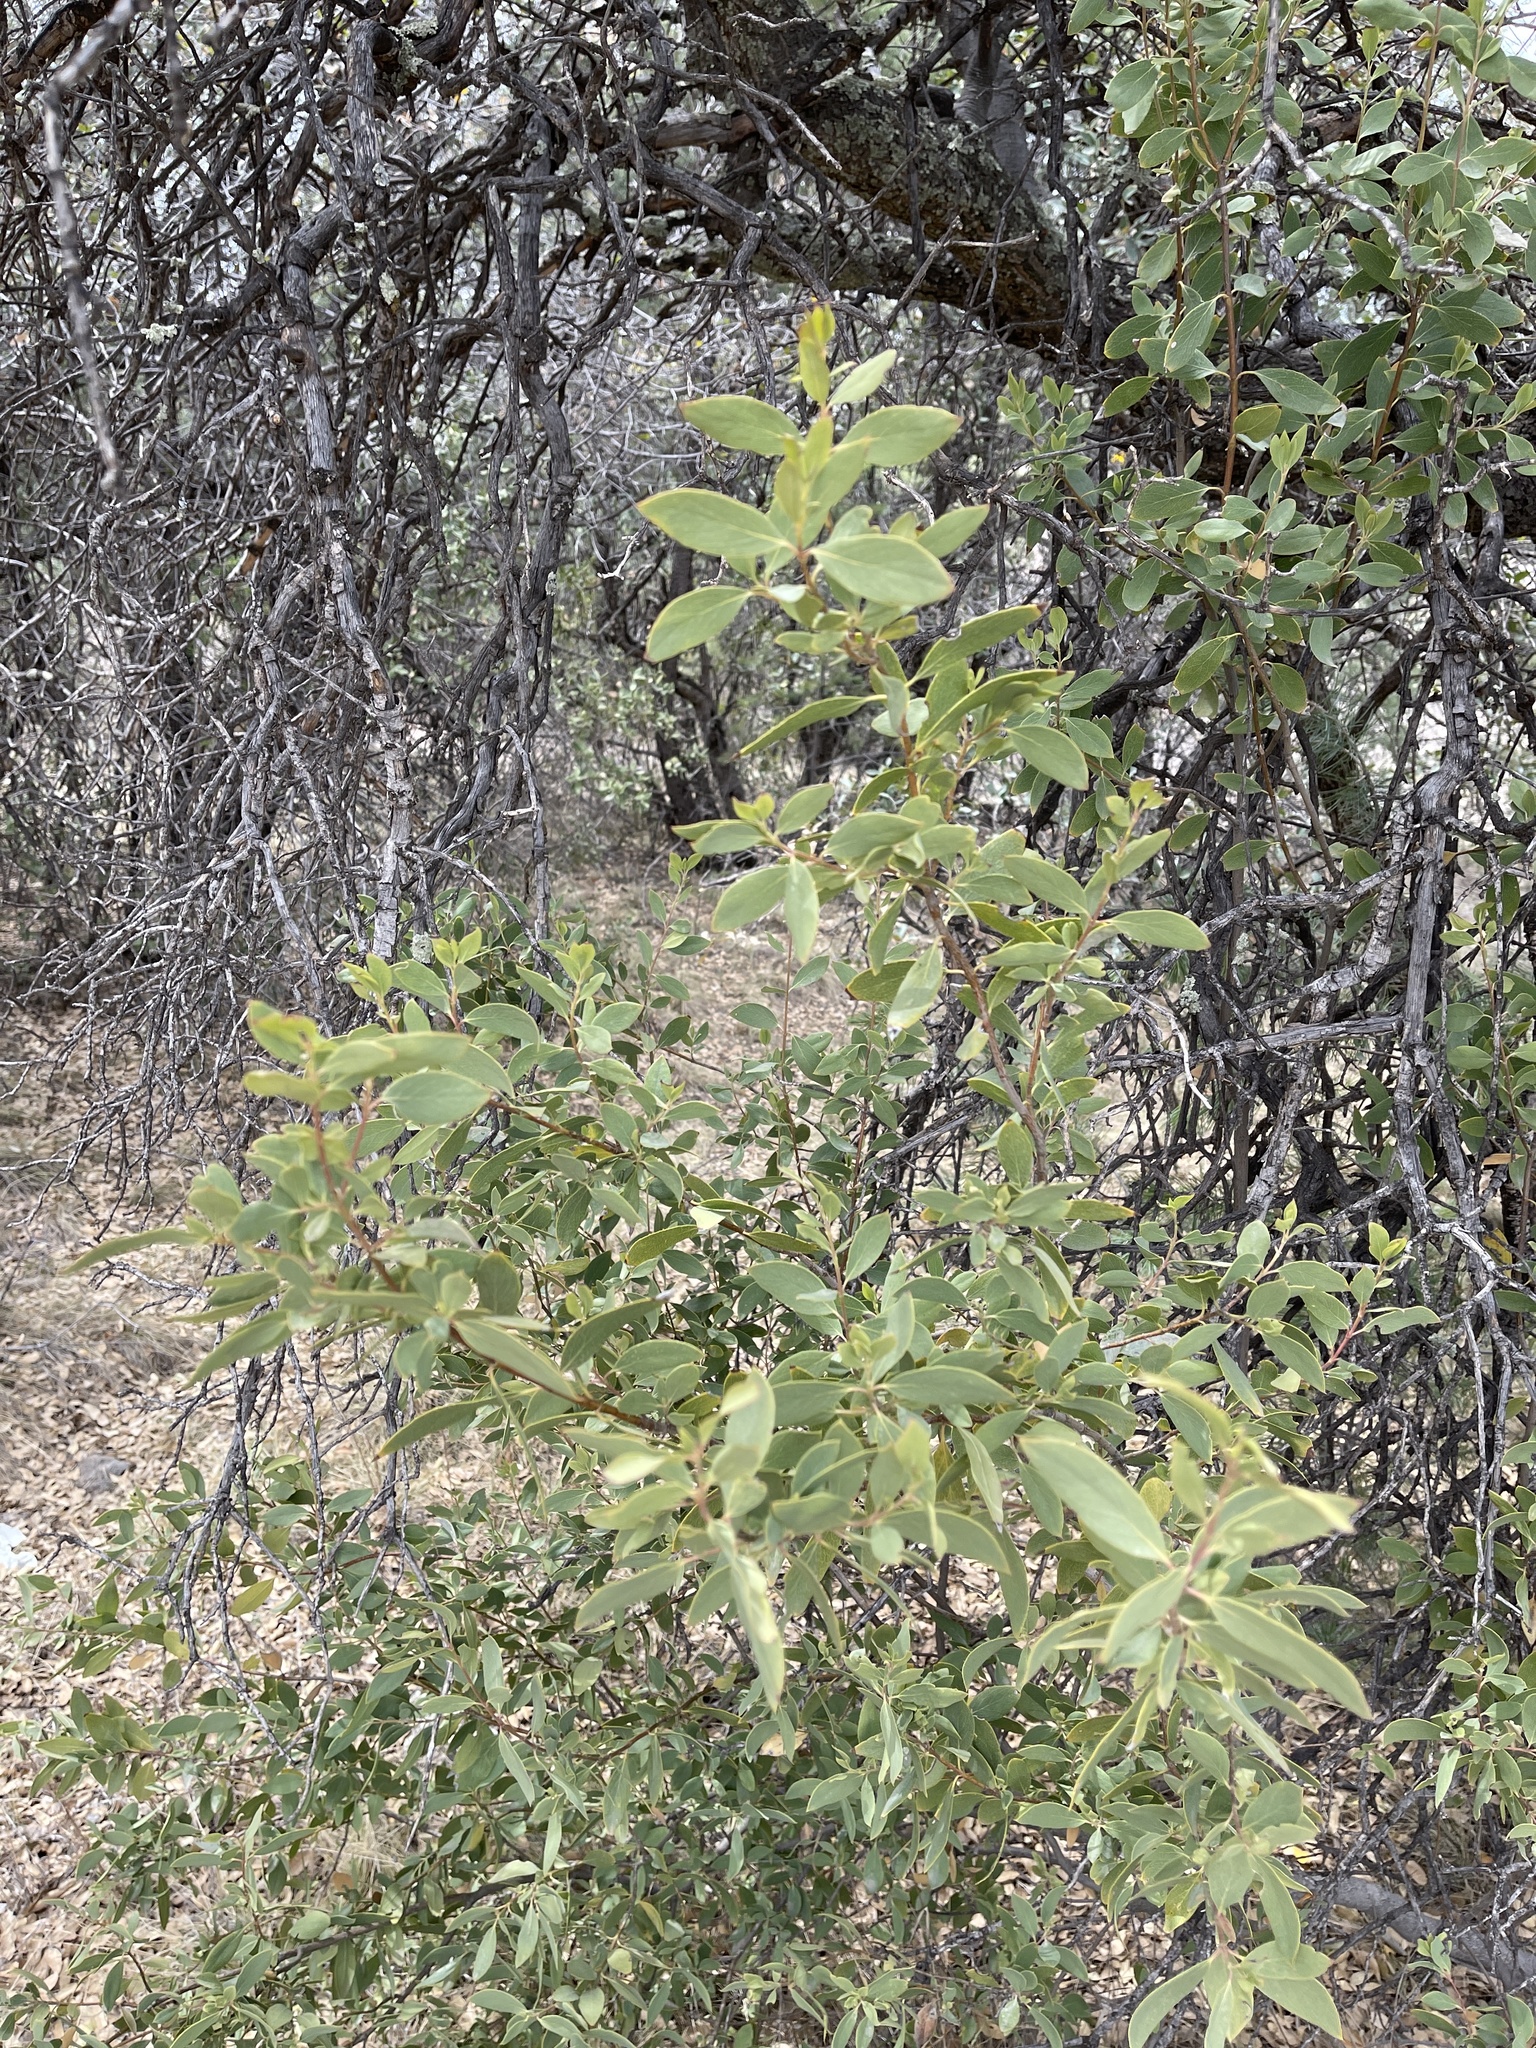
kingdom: Plantae
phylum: Tracheophyta
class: Magnoliopsida
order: Garryales
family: Garryaceae
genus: Garrya
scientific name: Garrya wrightii
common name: Wright's silktassel
